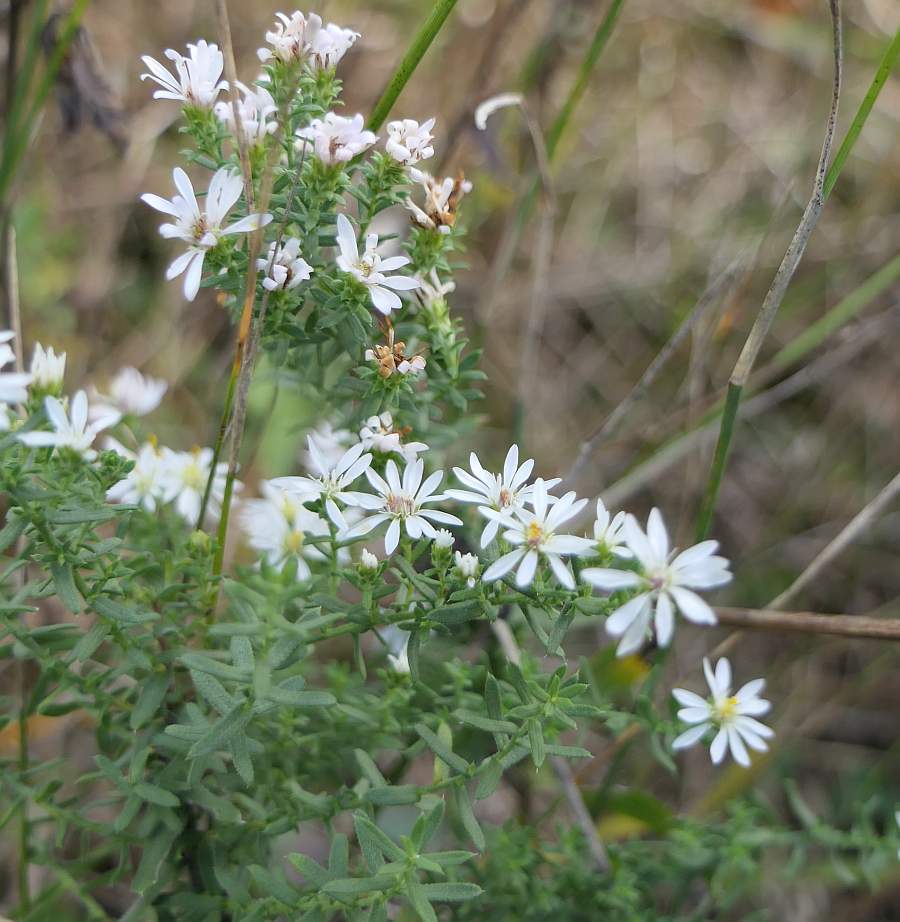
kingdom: Plantae
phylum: Tracheophyta
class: Magnoliopsida
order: Asterales
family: Asteraceae
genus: Symphyotrichum
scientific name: Symphyotrichum ericoides
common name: Heath aster
